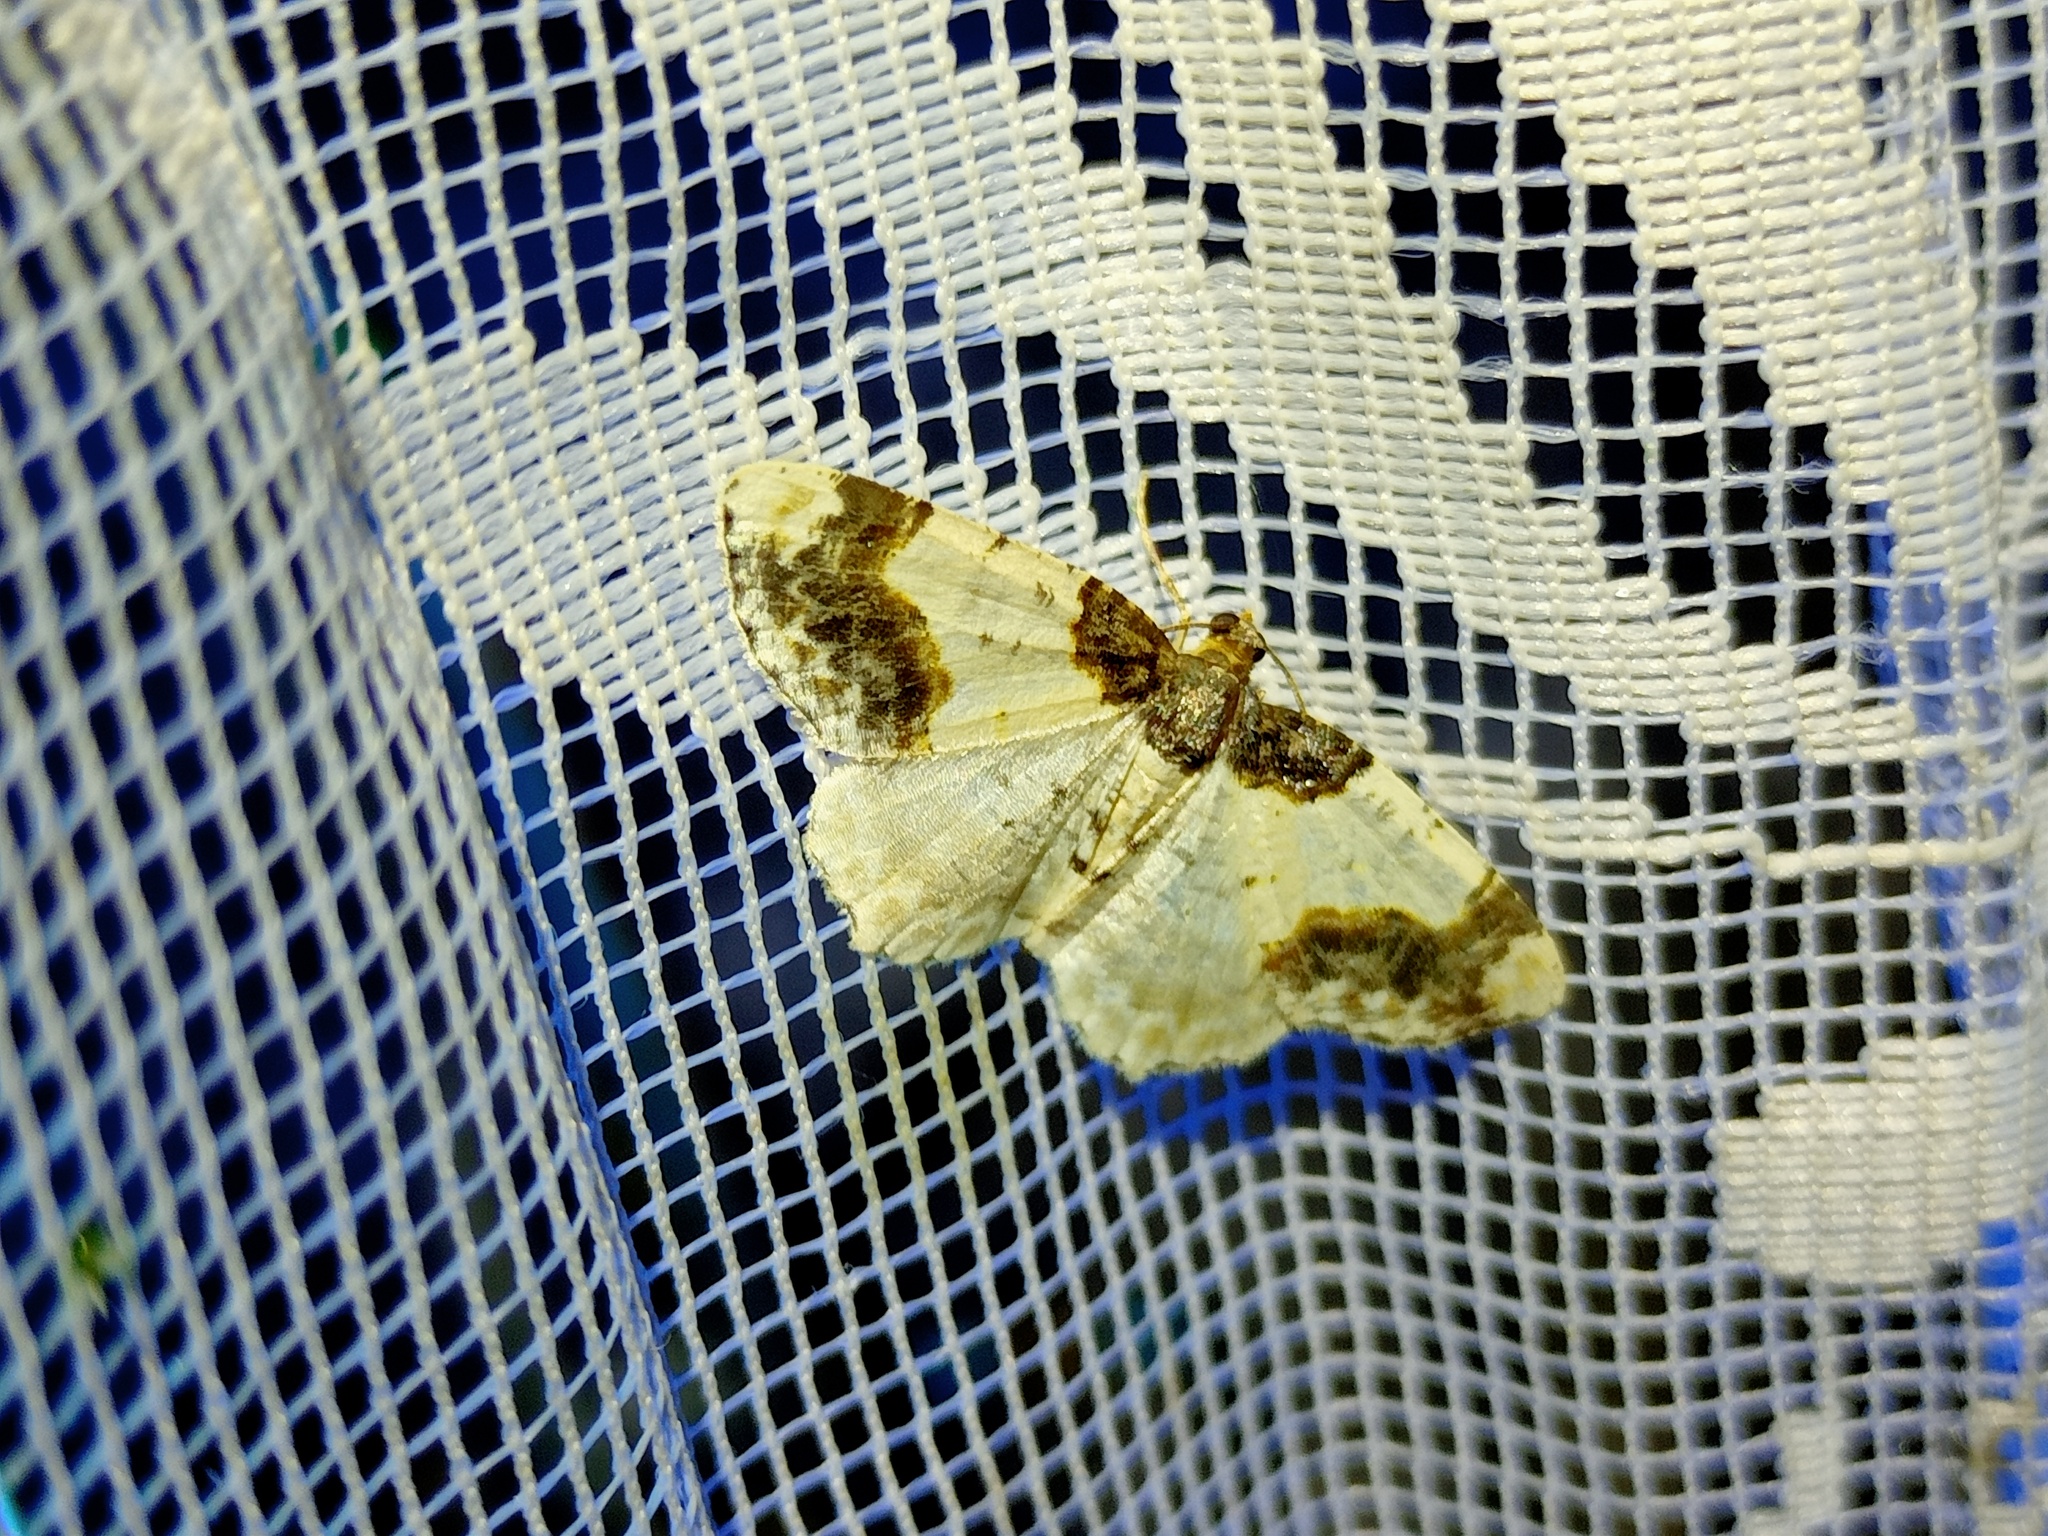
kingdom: Animalia
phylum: Arthropoda
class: Insecta
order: Lepidoptera
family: Geometridae
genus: Ligdia
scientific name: Ligdia adustata
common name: Scorched carpet
